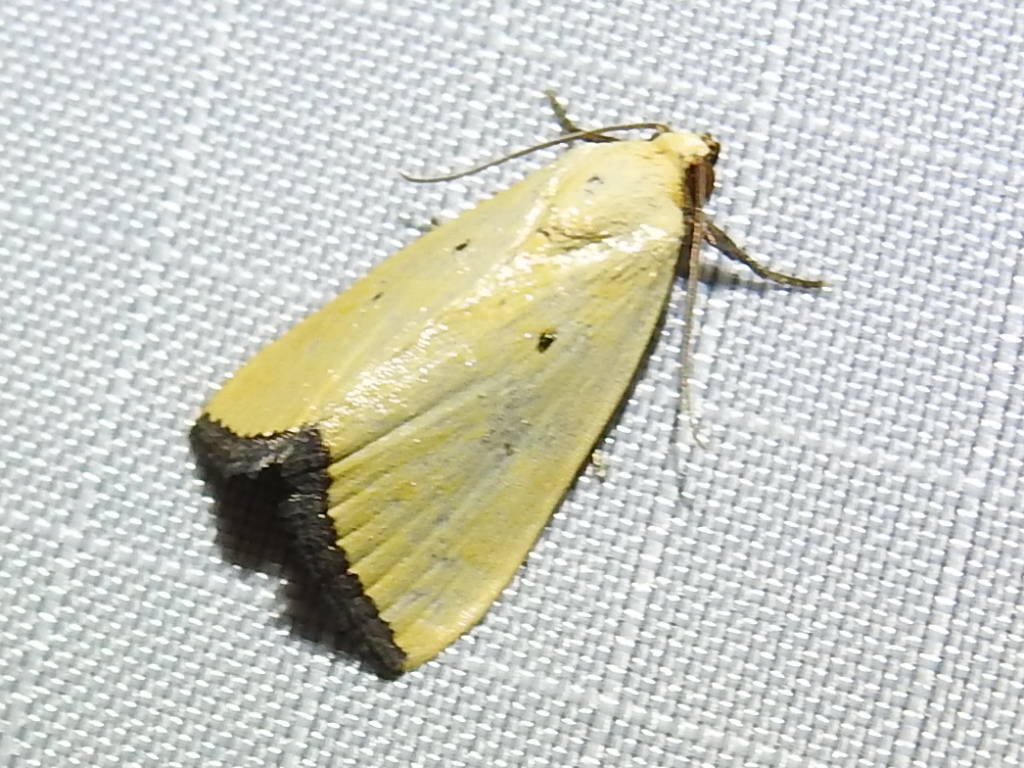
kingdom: Animalia
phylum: Arthropoda
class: Insecta
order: Lepidoptera
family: Noctuidae
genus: Marimatha
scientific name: Marimatha nigrofimbria
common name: Black-bordered lemon moth
